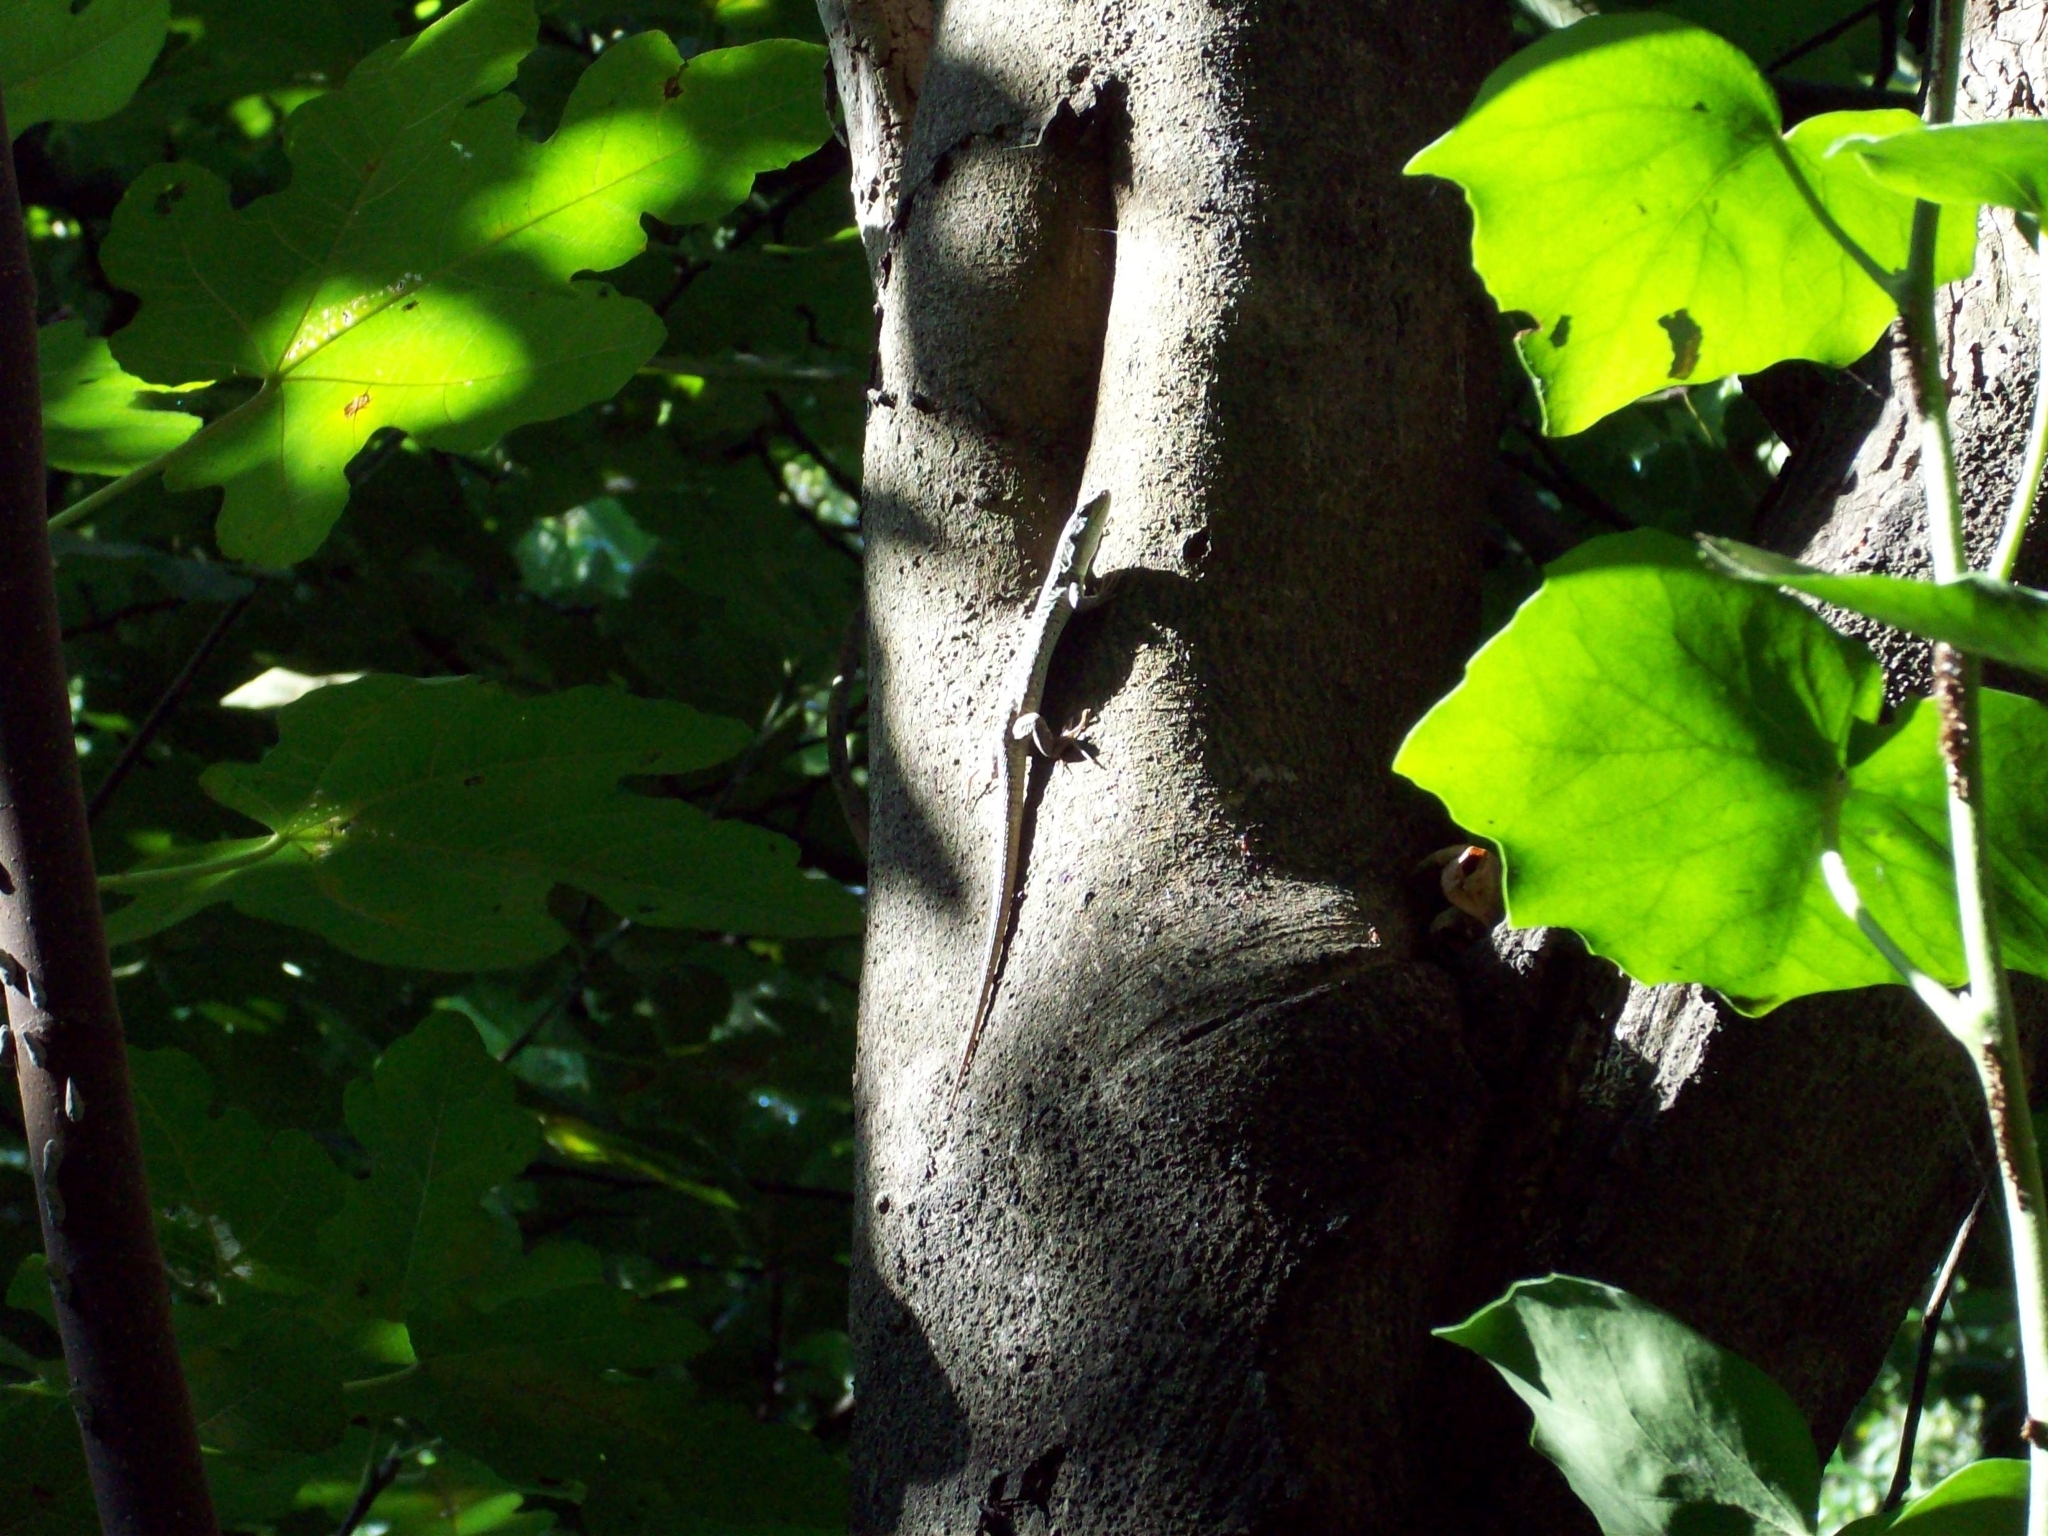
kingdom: Animalia
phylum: Chordata
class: Squamata
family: Lacertidae
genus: Podarcis
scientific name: Podarcis siculus
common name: Italian wall lizard
